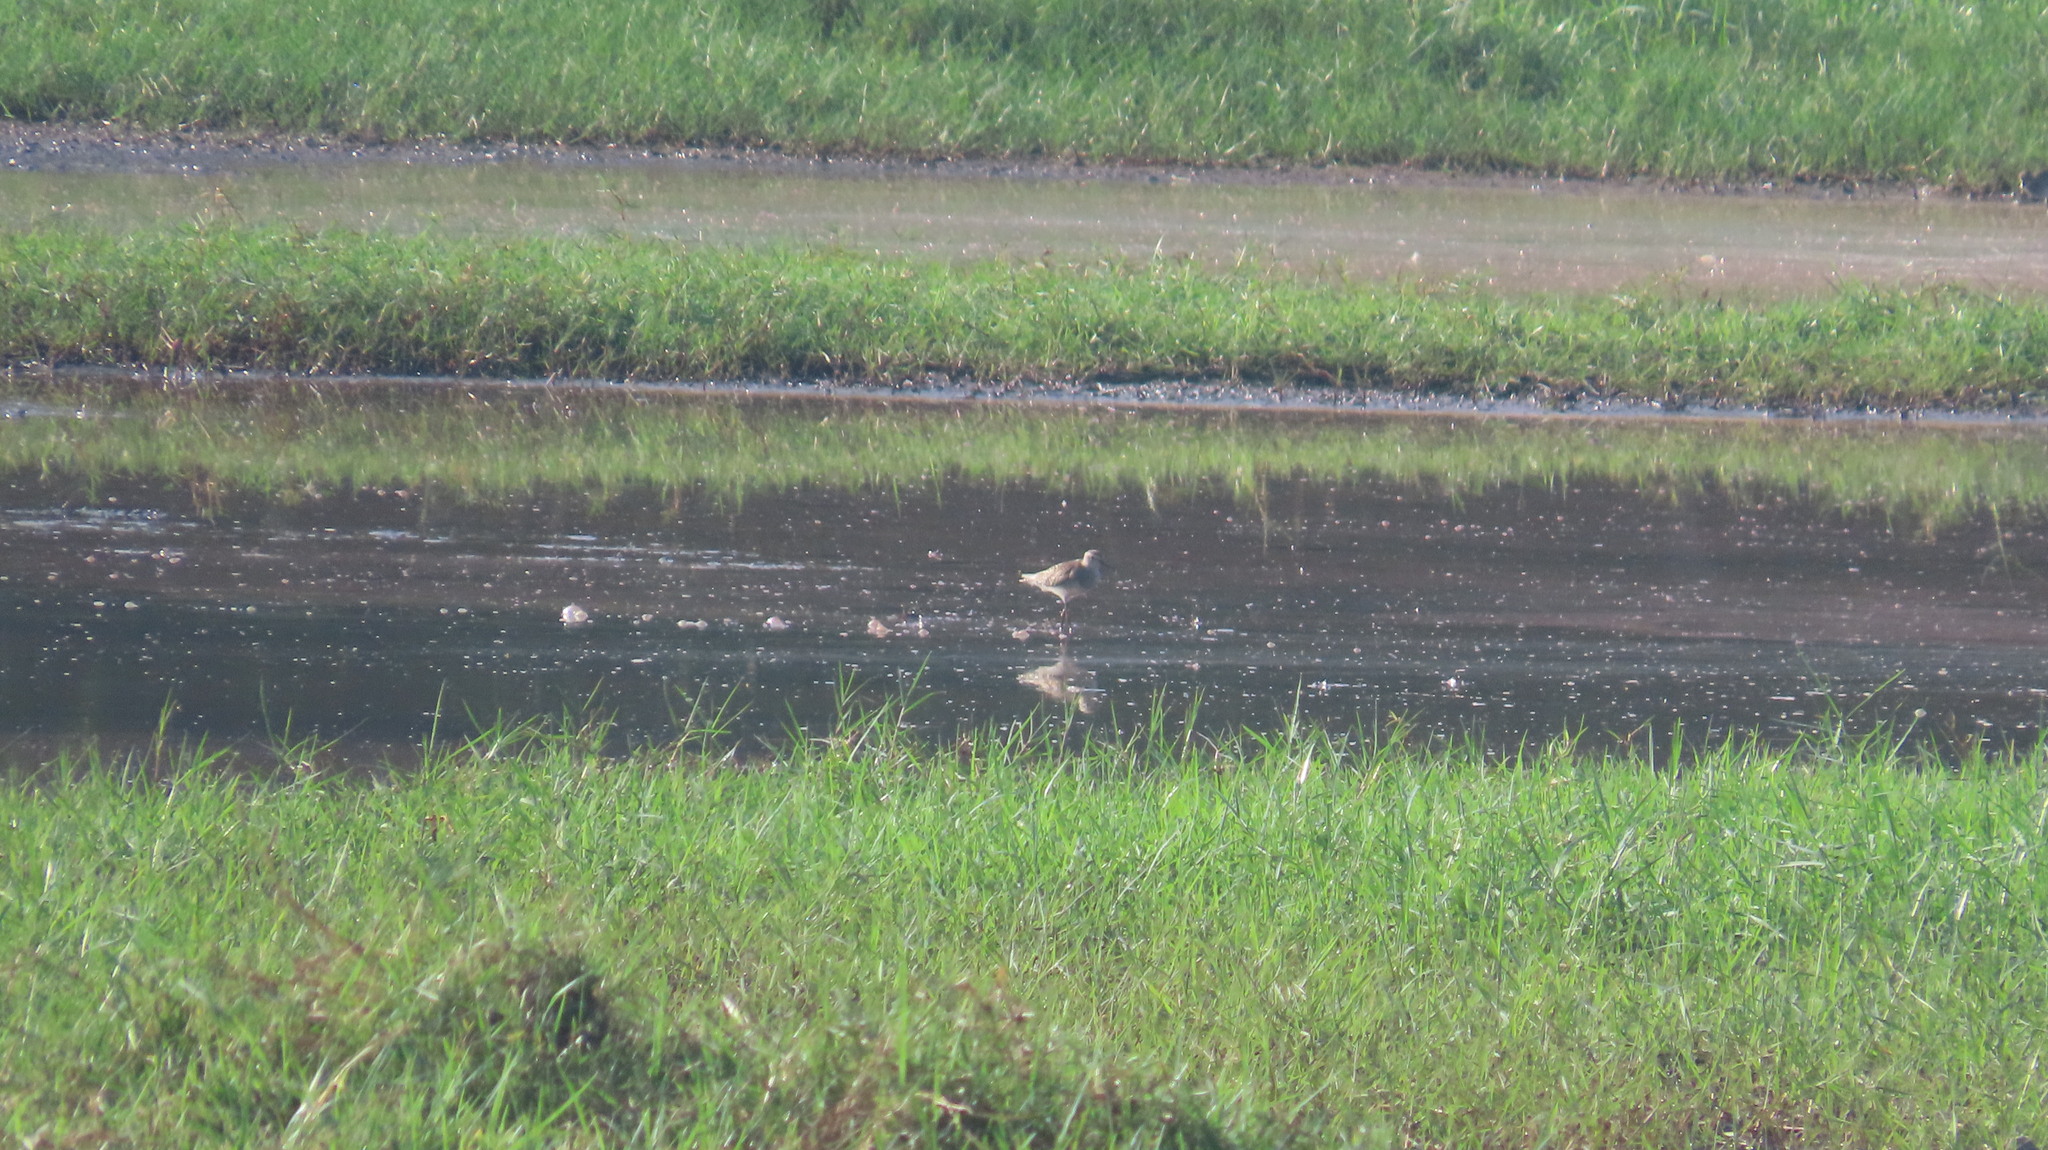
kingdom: Animalia
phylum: Chordata
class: Aves
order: Charadriiformes
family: Scolopacidae
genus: Tringa
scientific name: Tringa glareola
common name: Wood sandpiper
